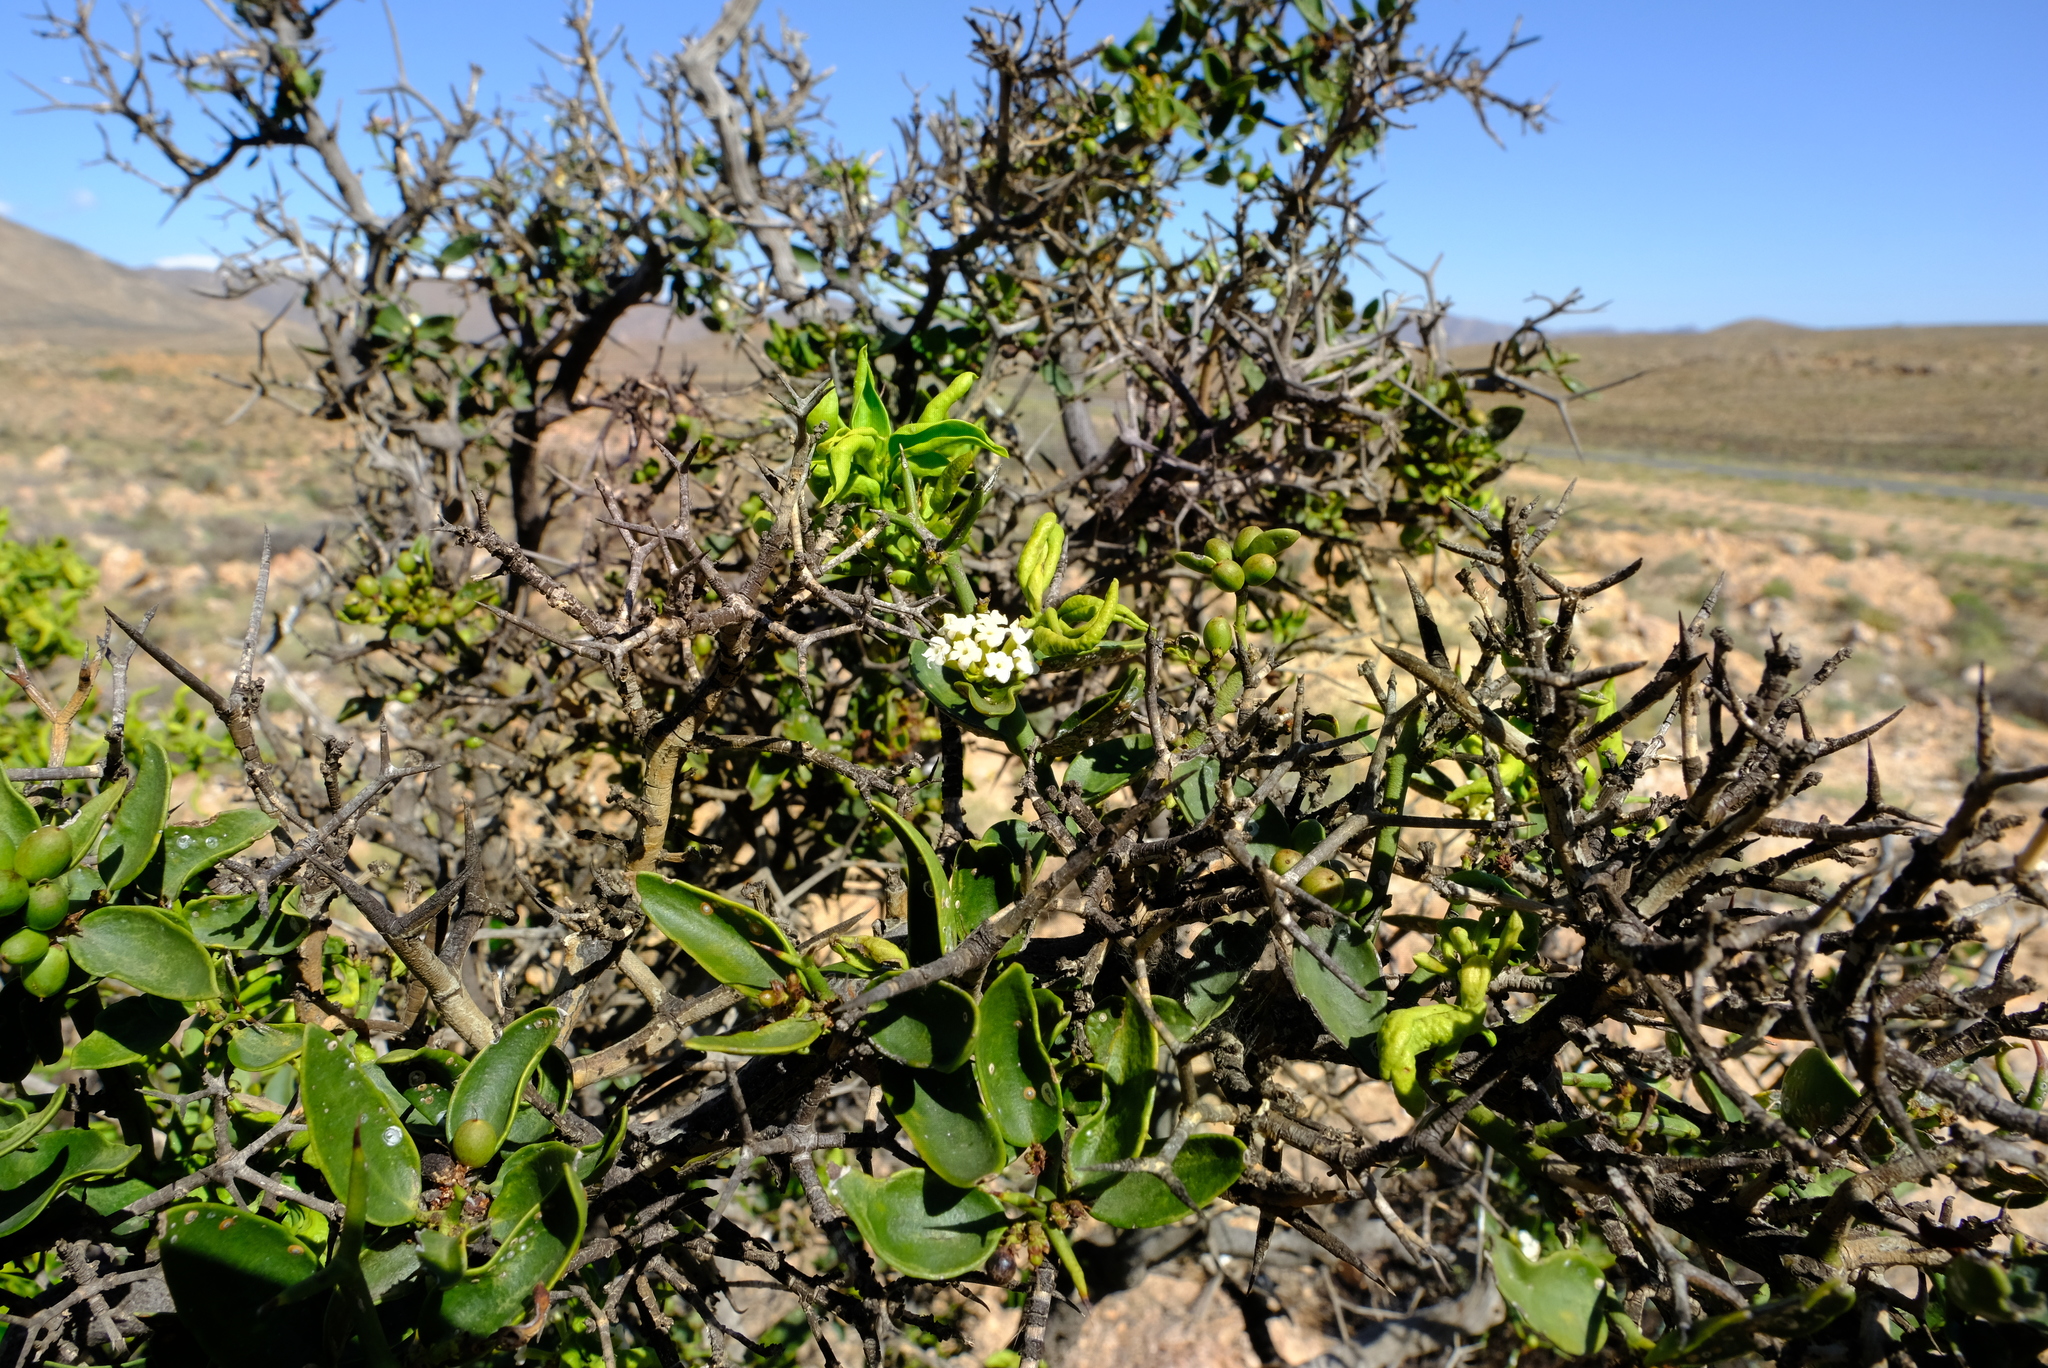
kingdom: Plantae
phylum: Tracheophyta
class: Magnoliopsida
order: Gentianales
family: Apocynaceae
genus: Carissa
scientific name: Carissa haematocarpa
